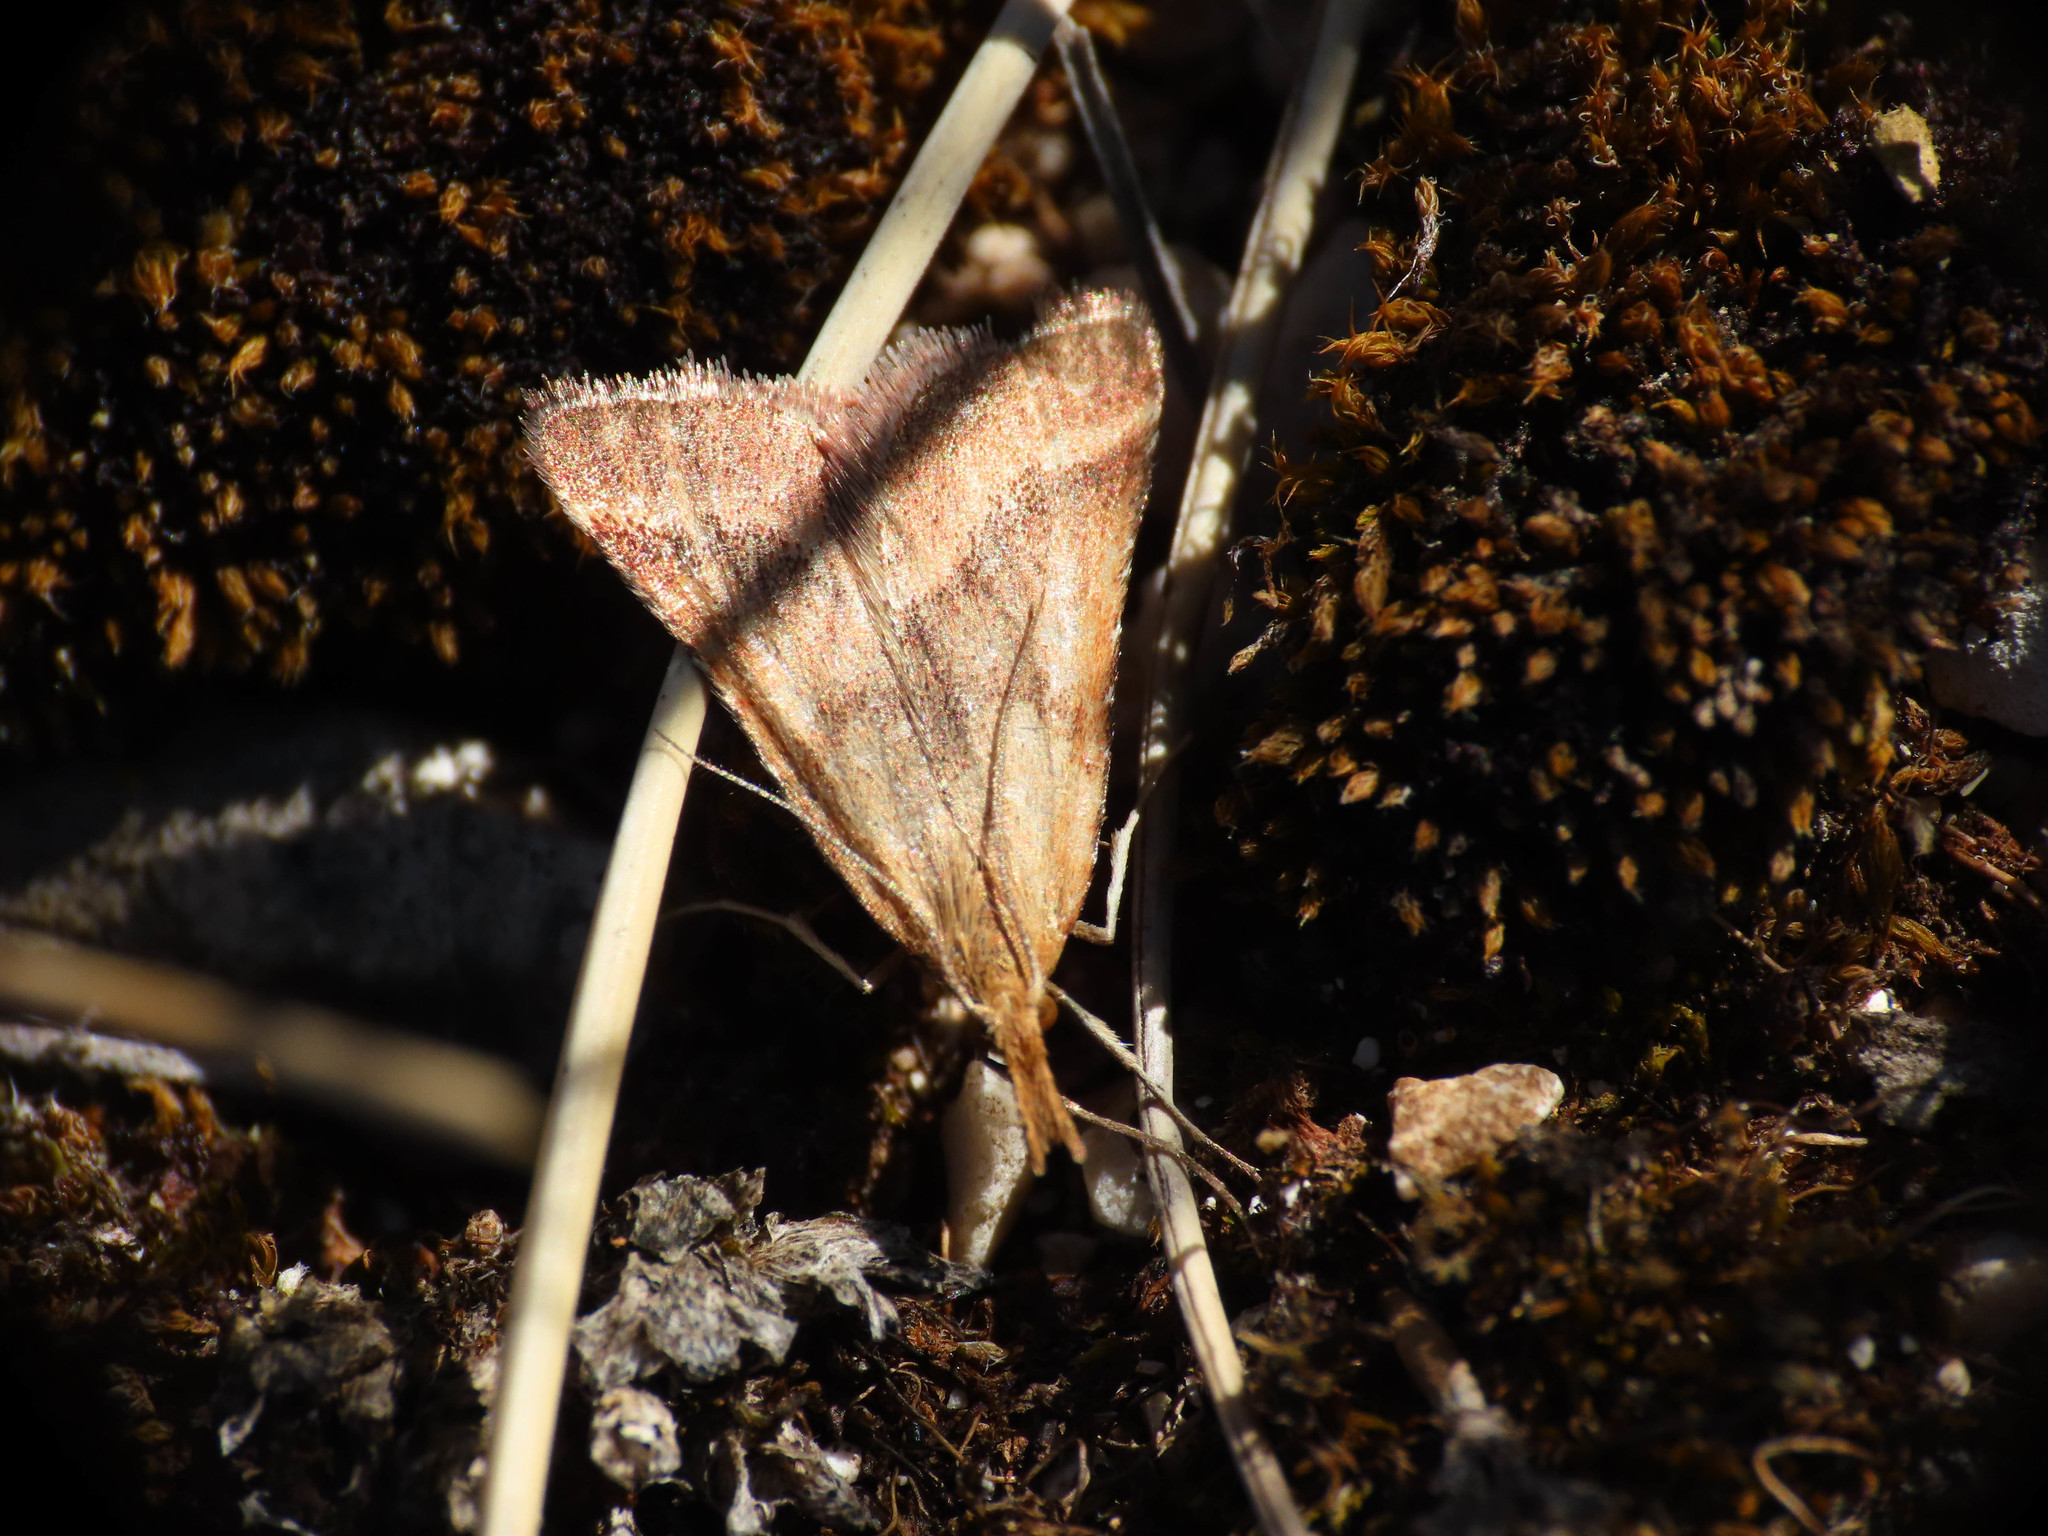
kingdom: Animalia
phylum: Arthropoda
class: Insecta
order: Lepidoptera
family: Pyralidae
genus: Synaphe
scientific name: Synaphe punctalis
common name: Long-legged tabby
